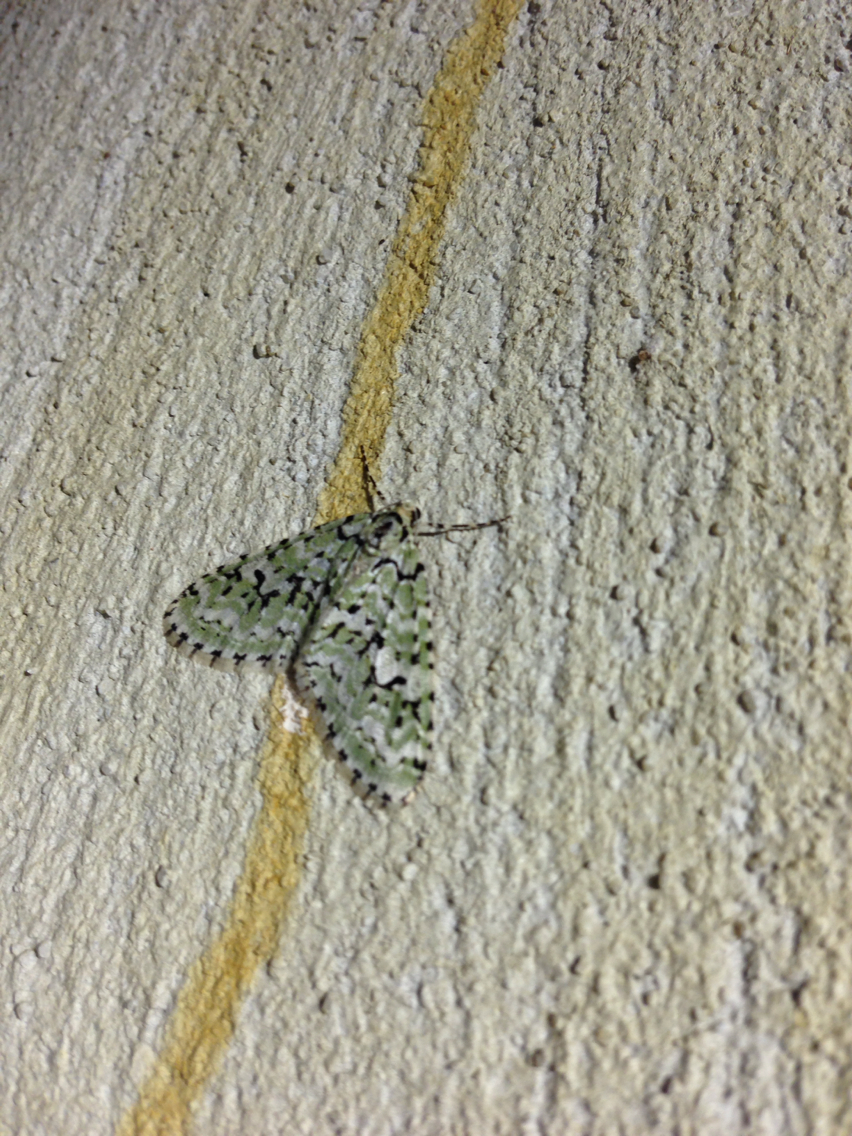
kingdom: Animalia
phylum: Arthropoda
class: Insecta
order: Lepidoptera
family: Geometridae
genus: Cladara
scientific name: Cladara atroliturata
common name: Scribbler
